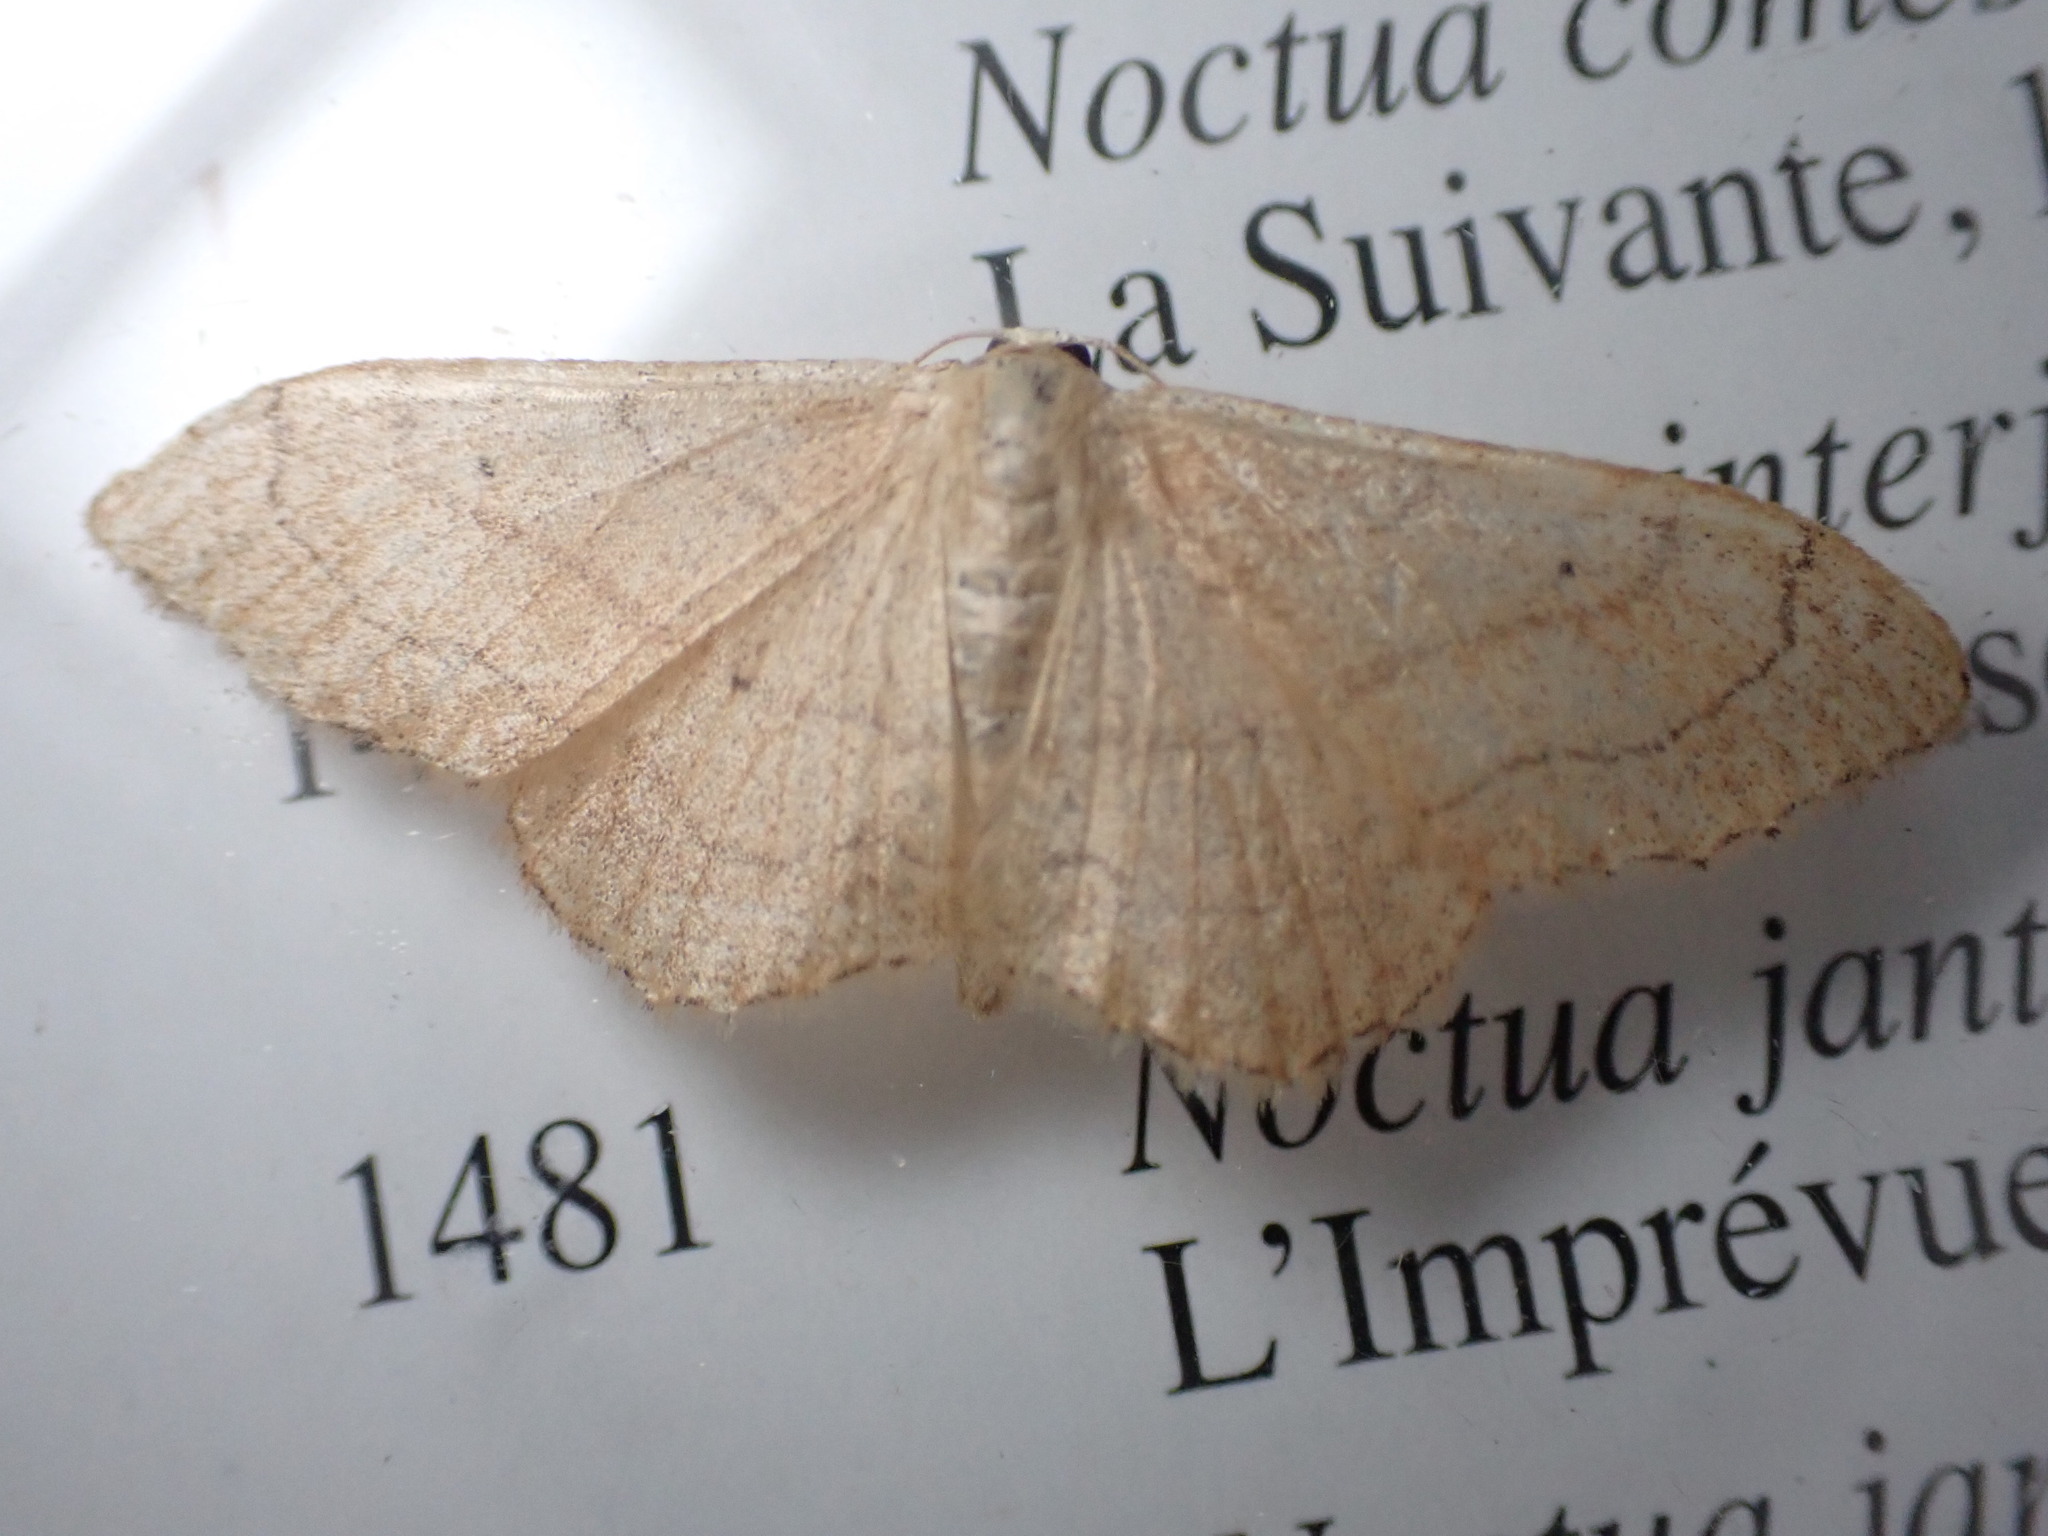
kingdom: Animalia
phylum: Arthropoda
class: Insecta
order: Lepidoptera
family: Geometridae
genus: Idaea
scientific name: Idaea aversata
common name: Riband wave
